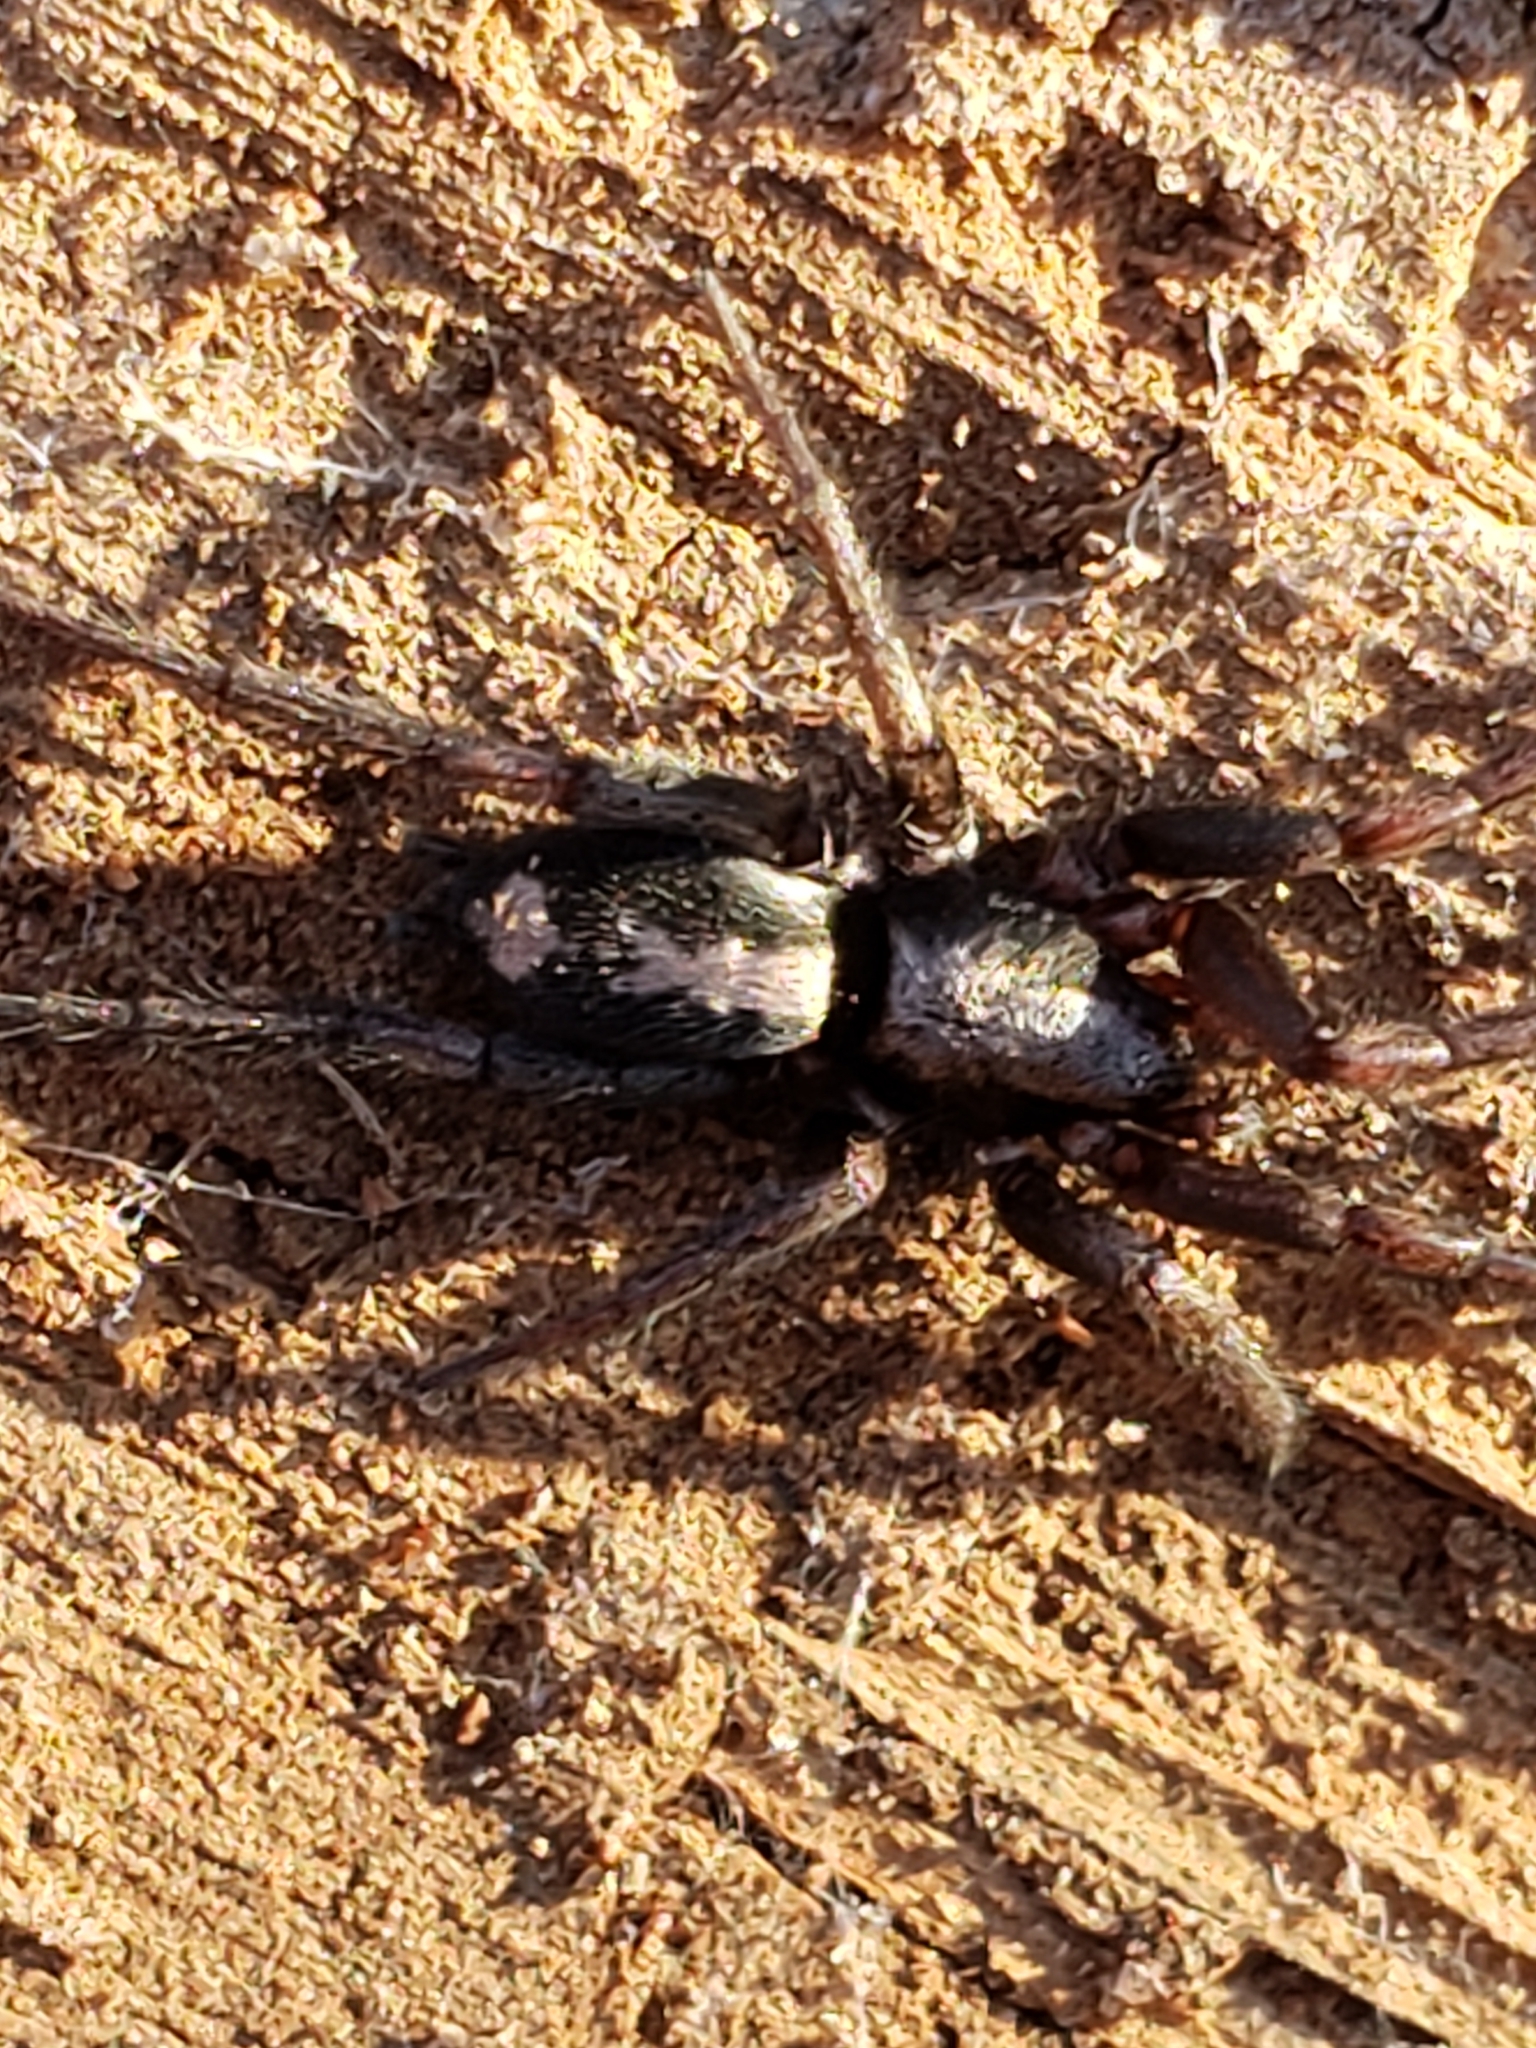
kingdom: Animalia
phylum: Arthropoda
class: Arachnida
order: Araneae
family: Gnaphosidae
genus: Herpyllus
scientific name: Herpyllus ecclesiasticus
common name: Eastern parson spider
